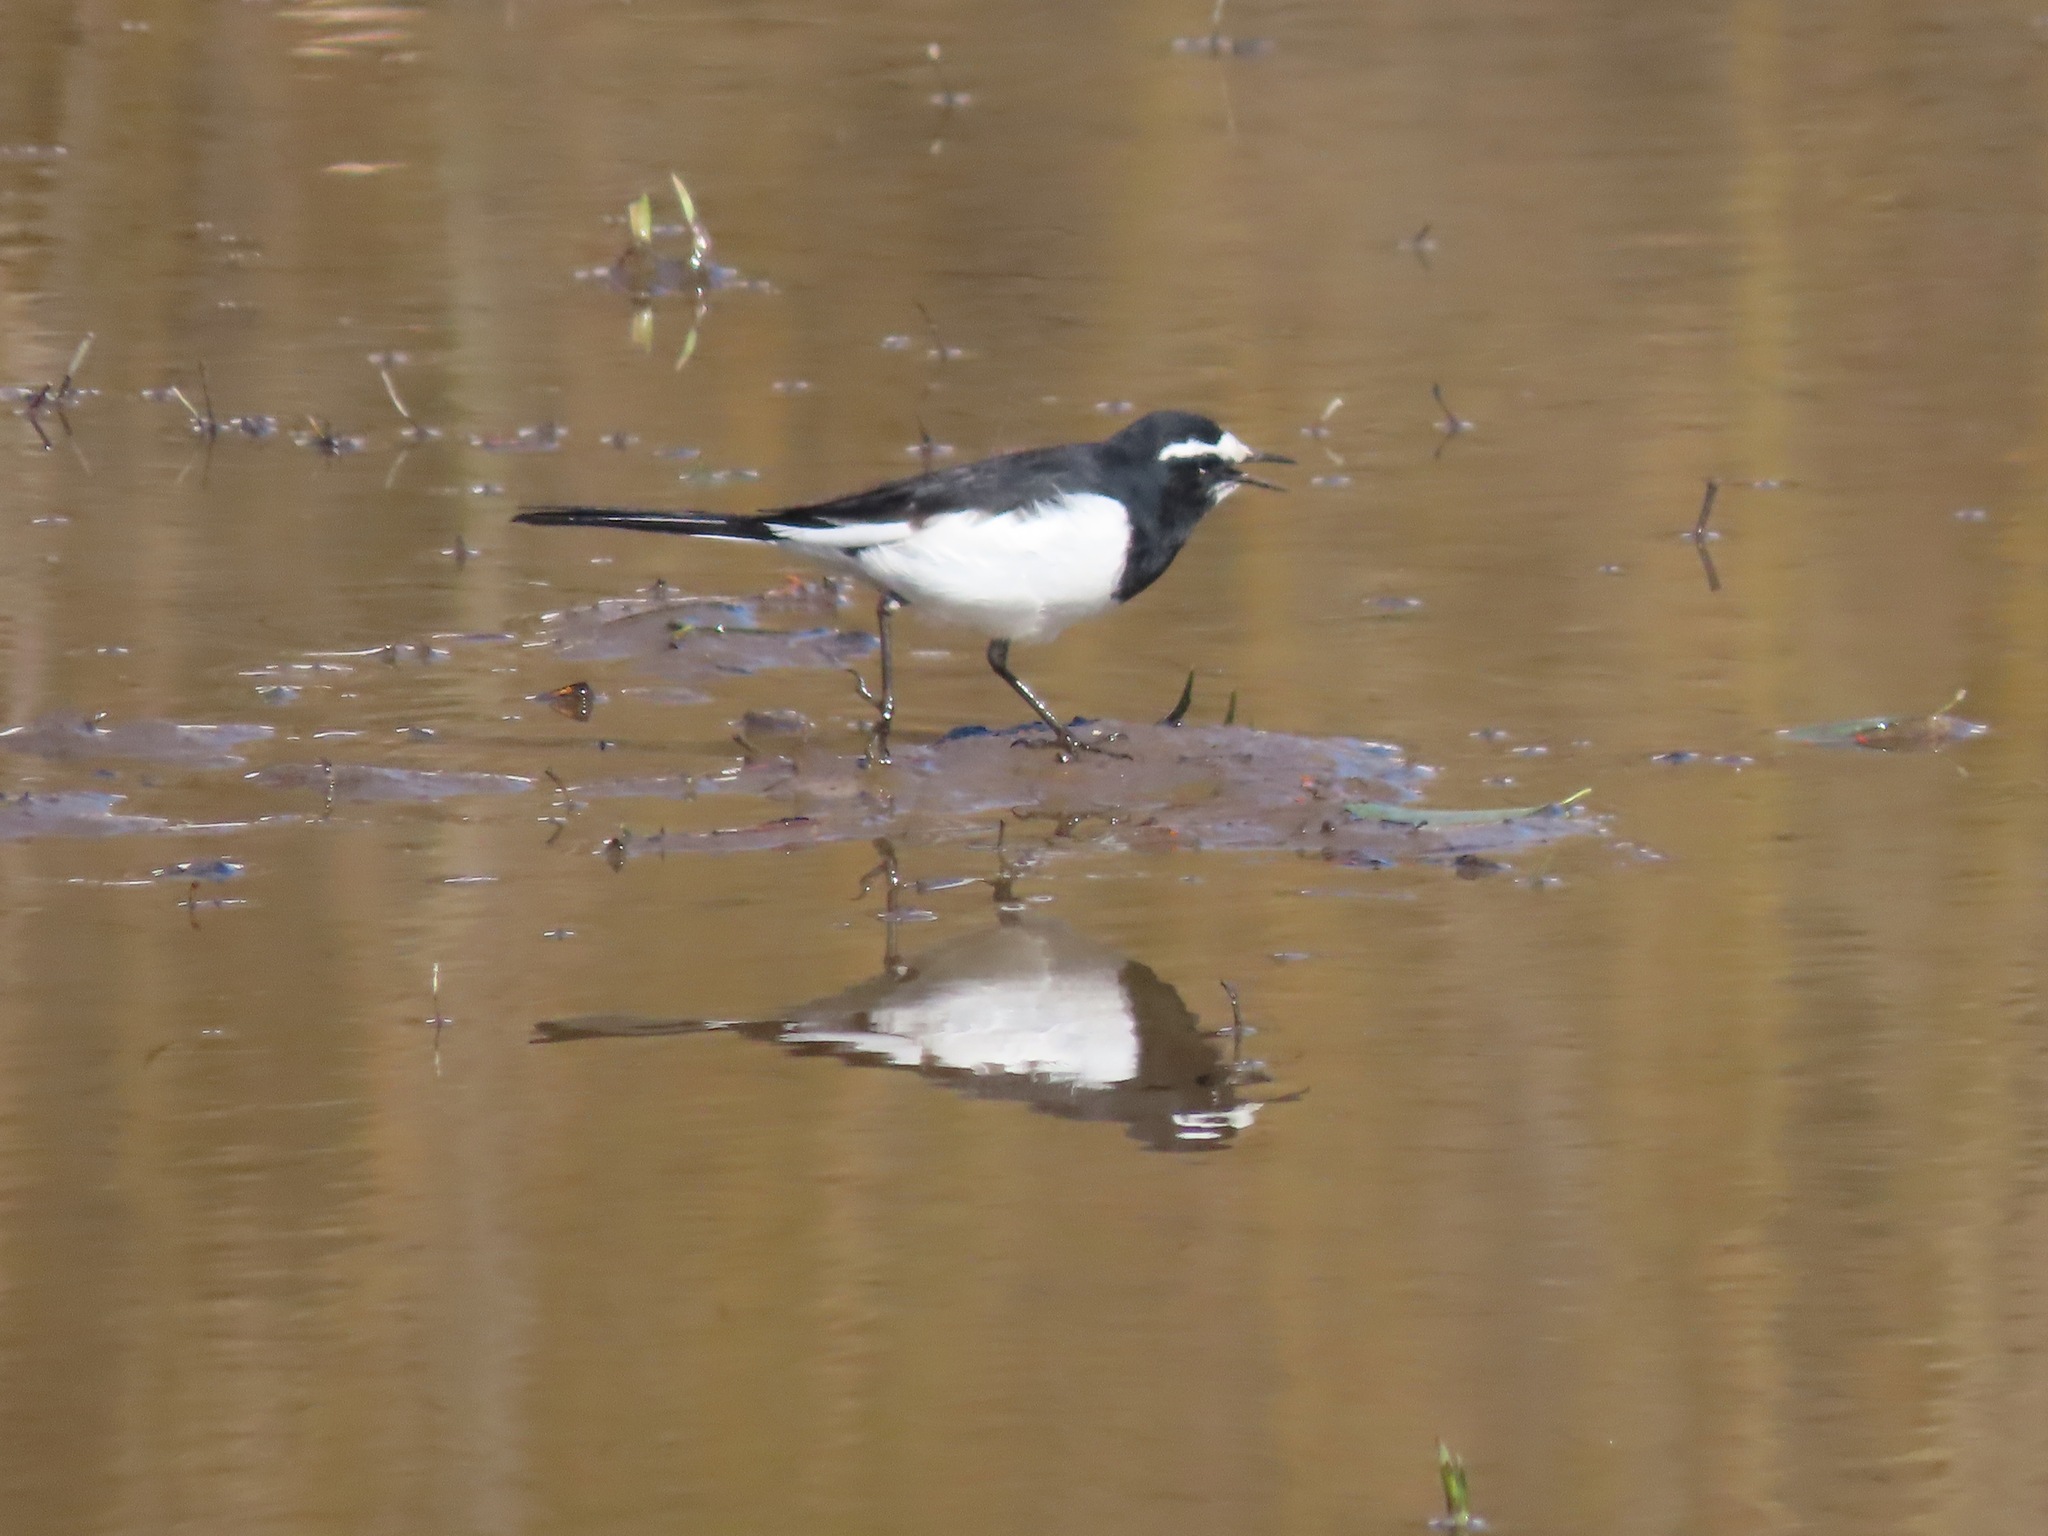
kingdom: Animalia
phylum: Chordata
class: Aves
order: Passeriformes
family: Motacillidae
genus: Motacilla
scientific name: Motacilla grandis
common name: Japanese wagtail
